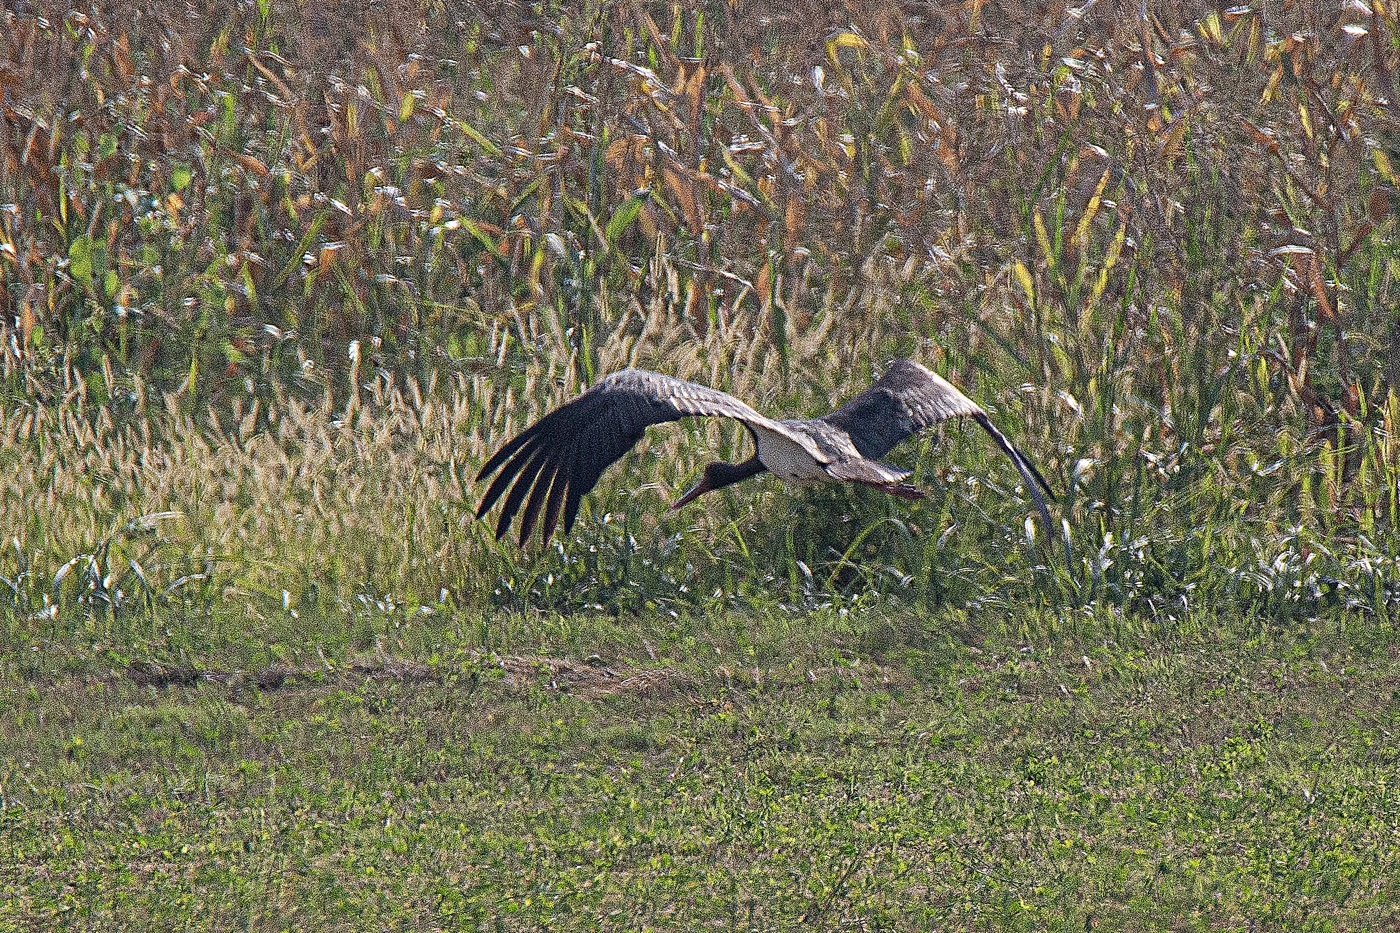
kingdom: Animalia
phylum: Chordata
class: Aves
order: Ciconiiformes
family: Ciconiidae
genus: Ciconia
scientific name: Ciconia nigra
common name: Black stork
